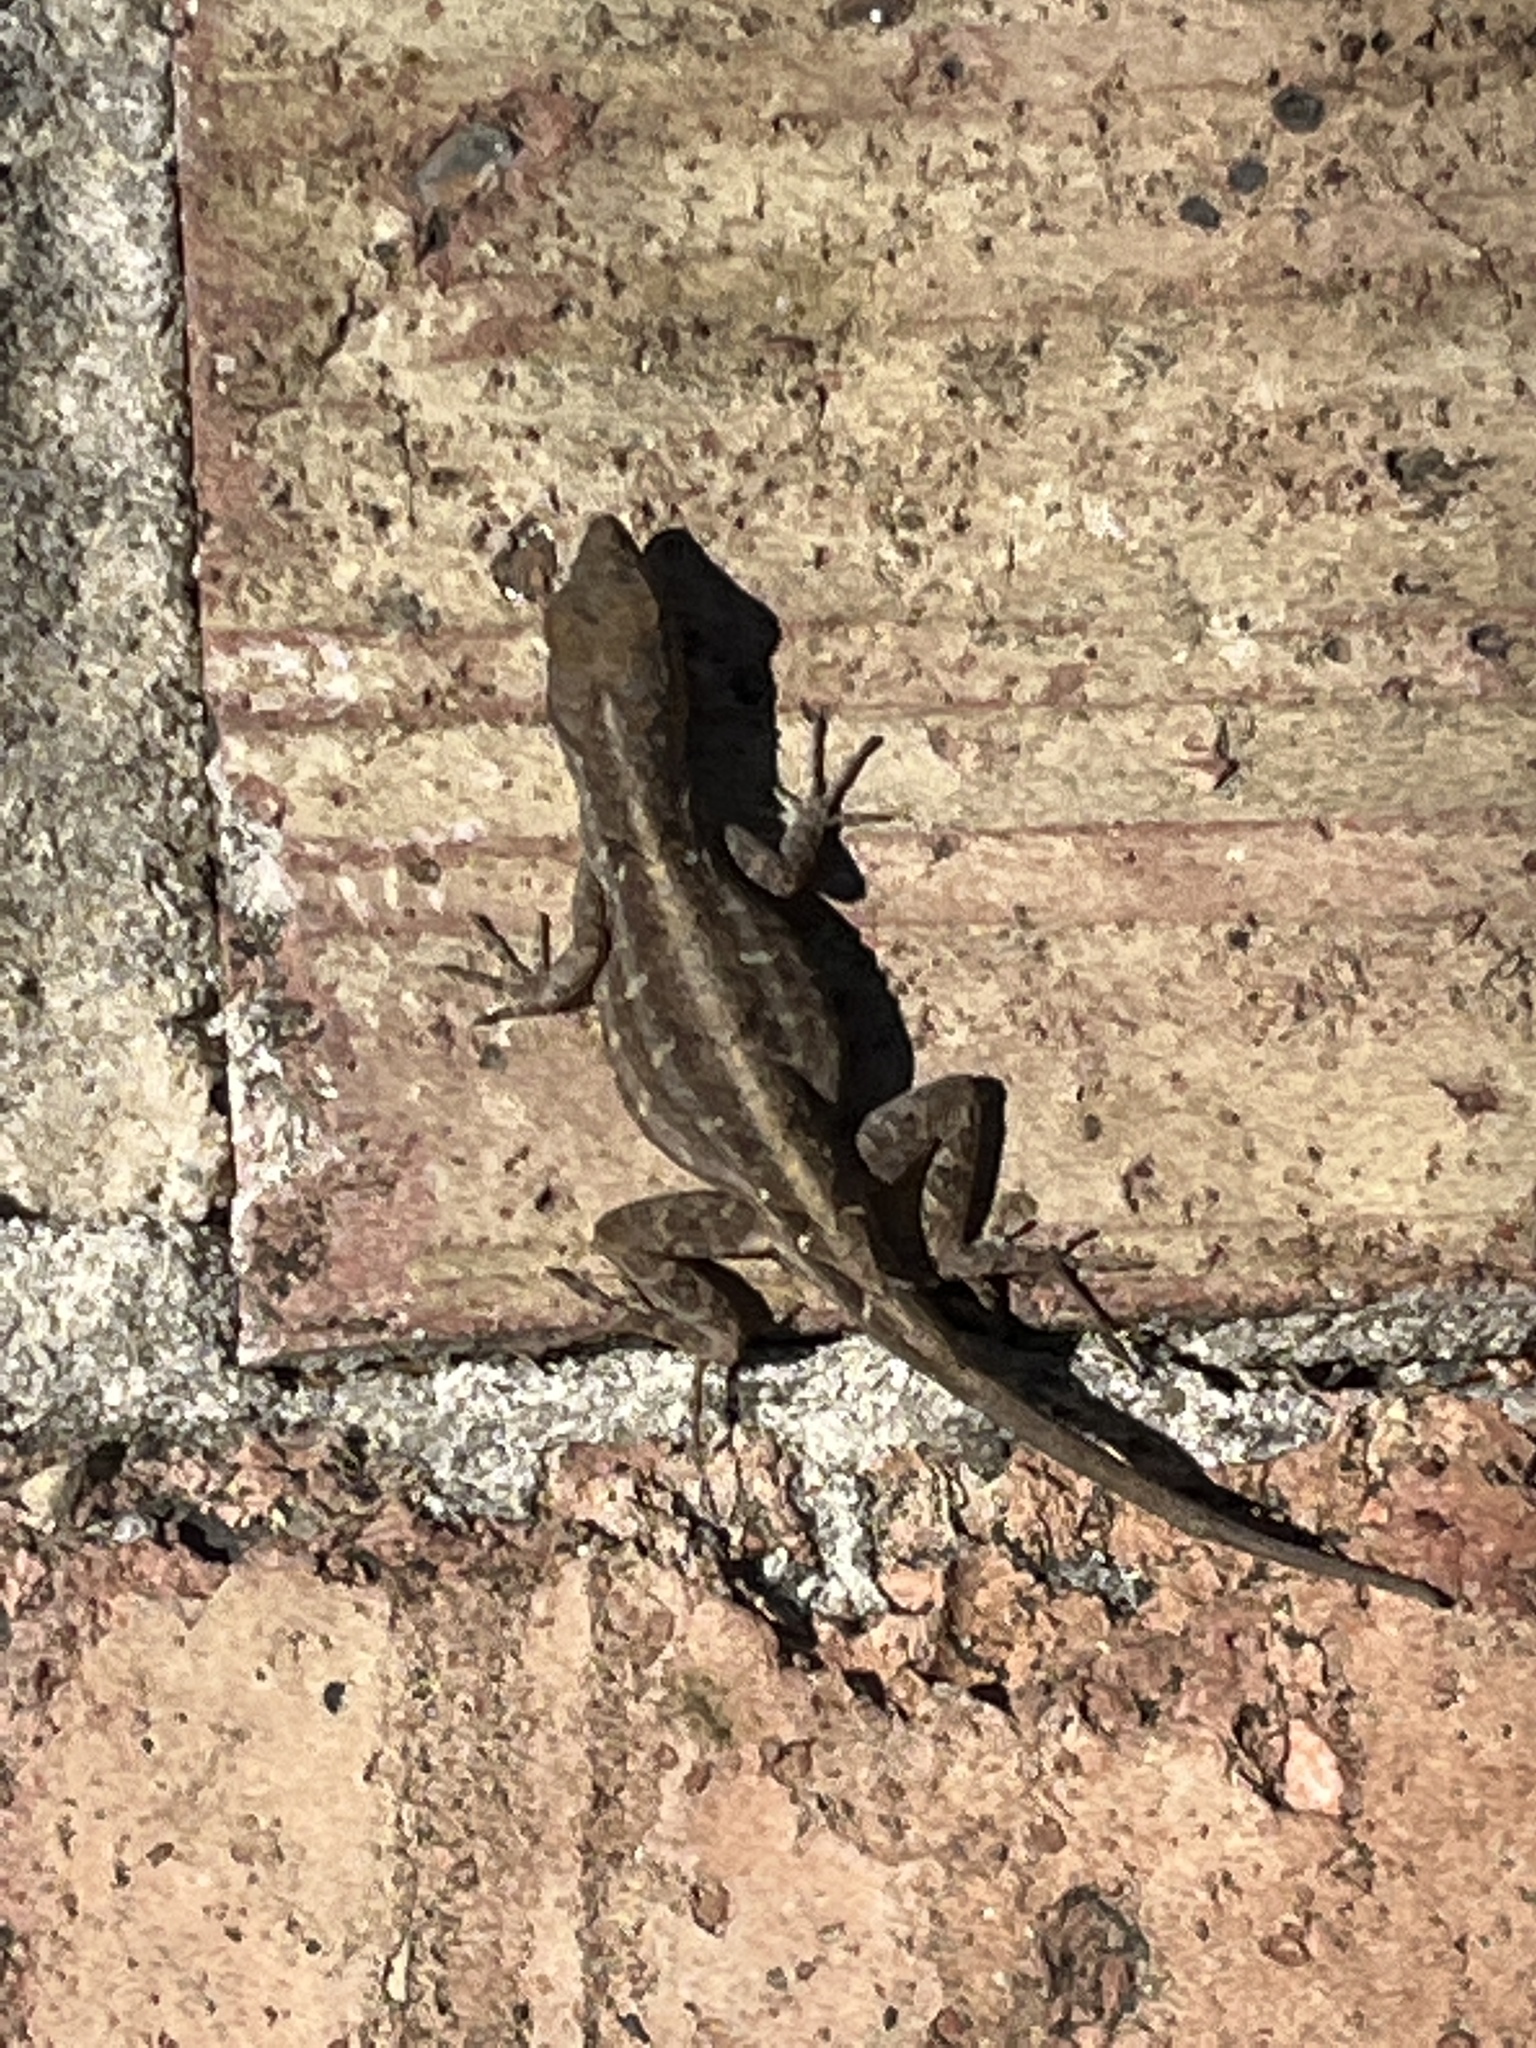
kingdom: Animalia
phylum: Chordata
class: Squamata
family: Dactyloidae
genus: Anolis
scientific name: Anolis sagrei
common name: Brown anole
